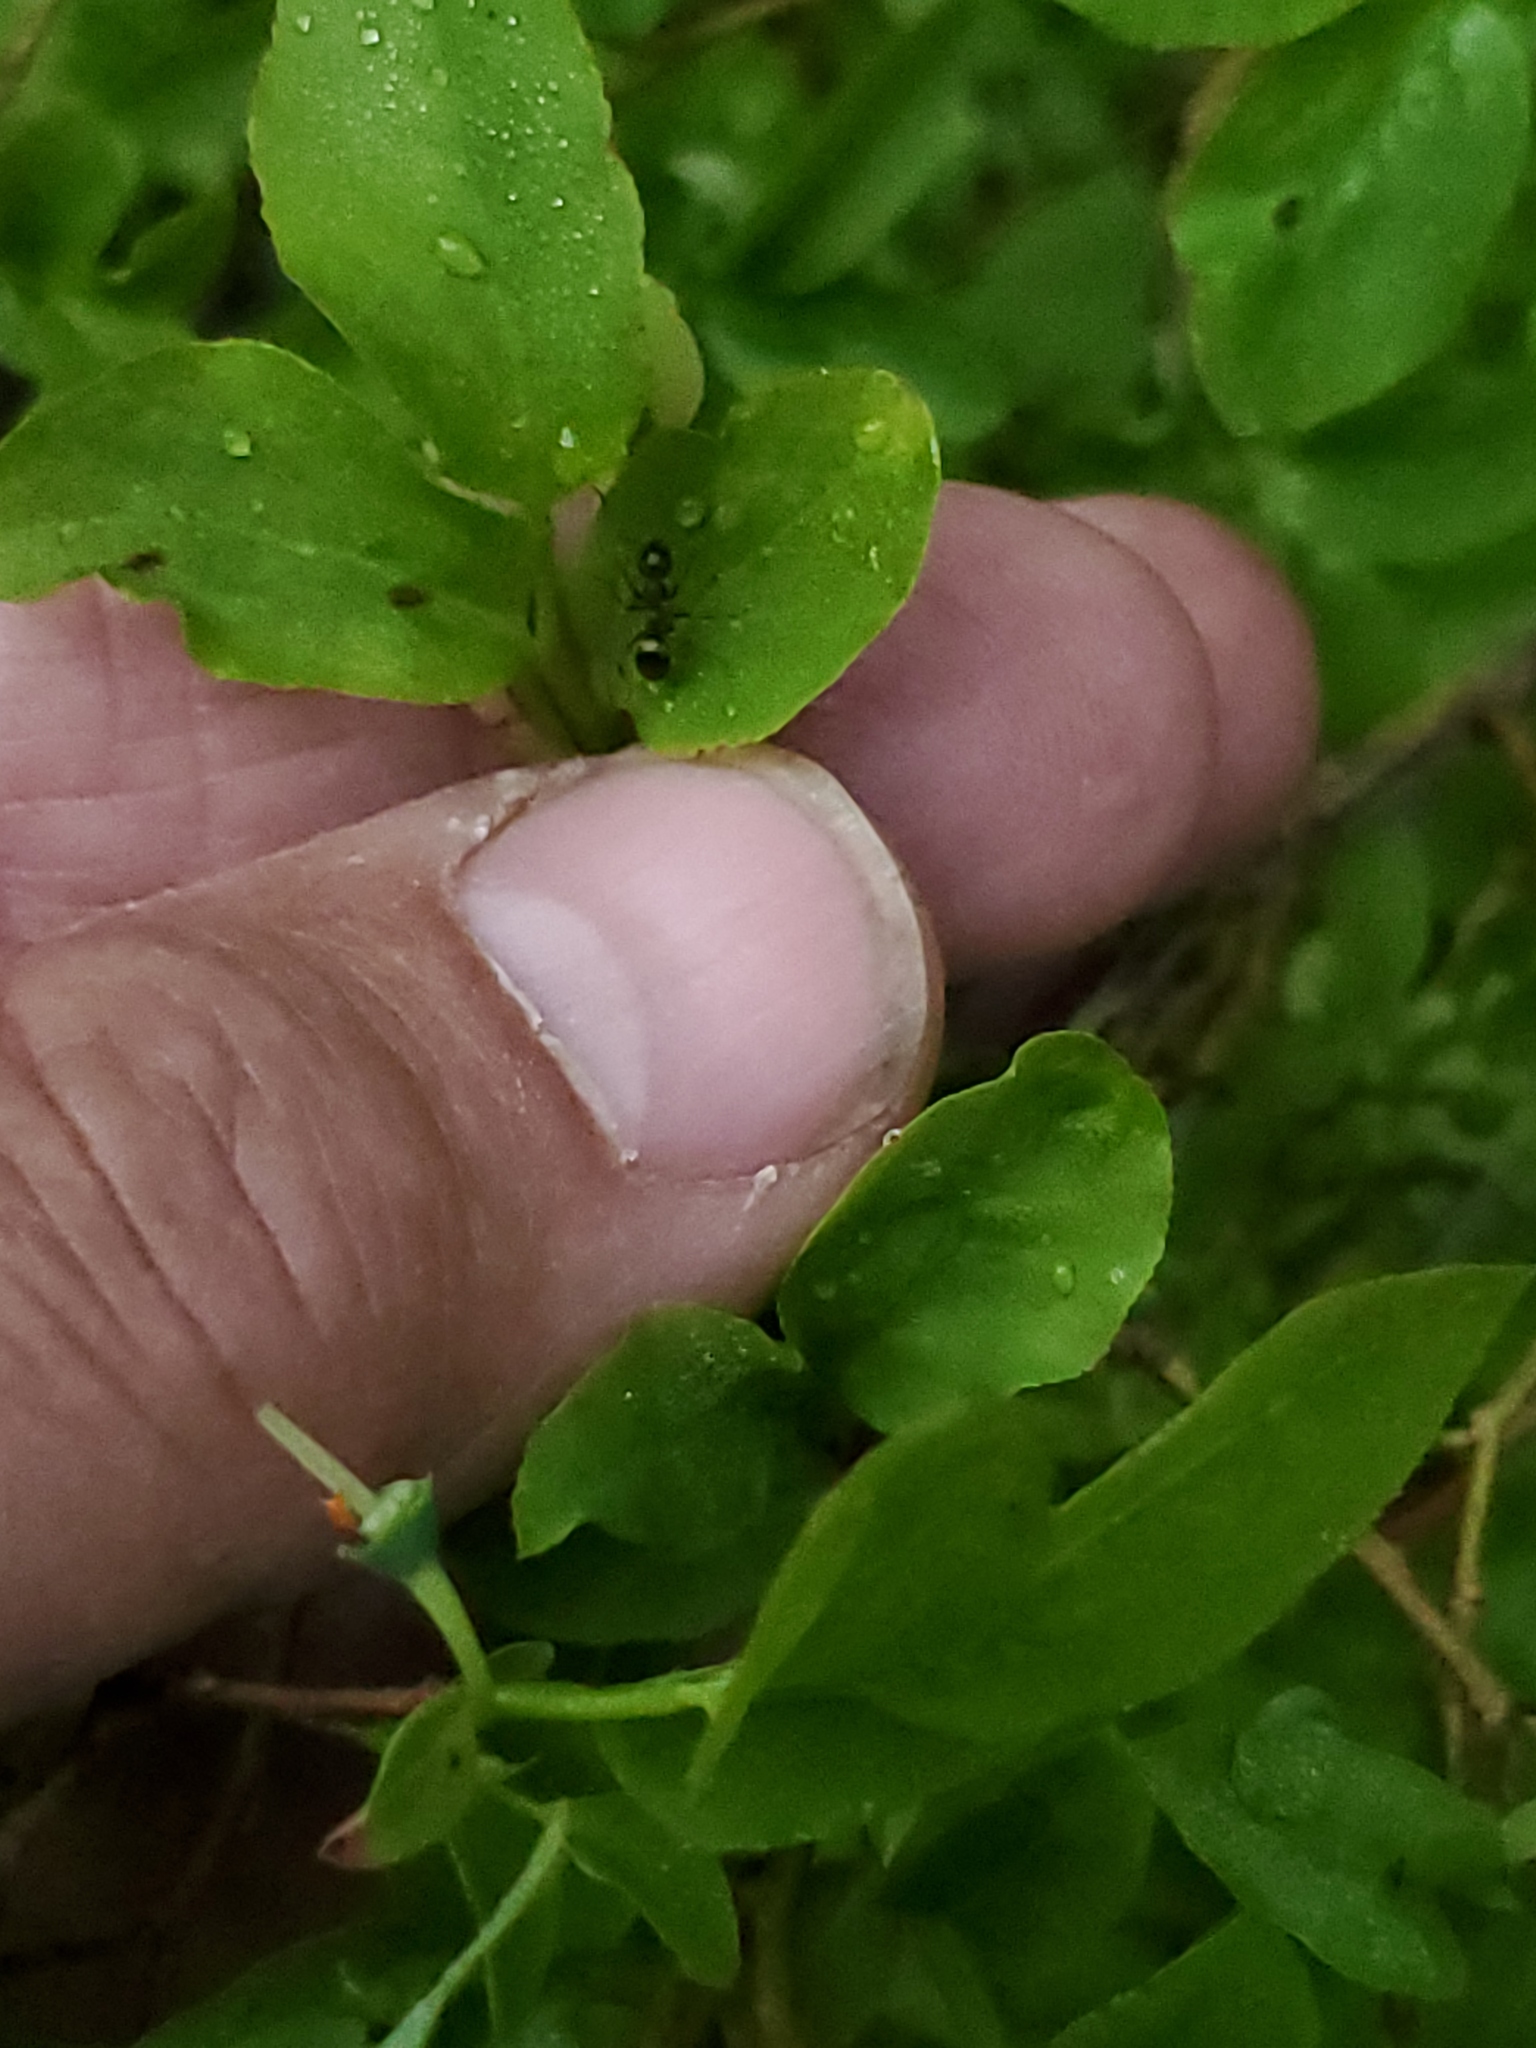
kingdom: Plantae
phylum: Tracheophyta
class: Magnoliopsida
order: Ericales
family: Ericaceae
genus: Vaccinium
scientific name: Vaccinium membranaceum
